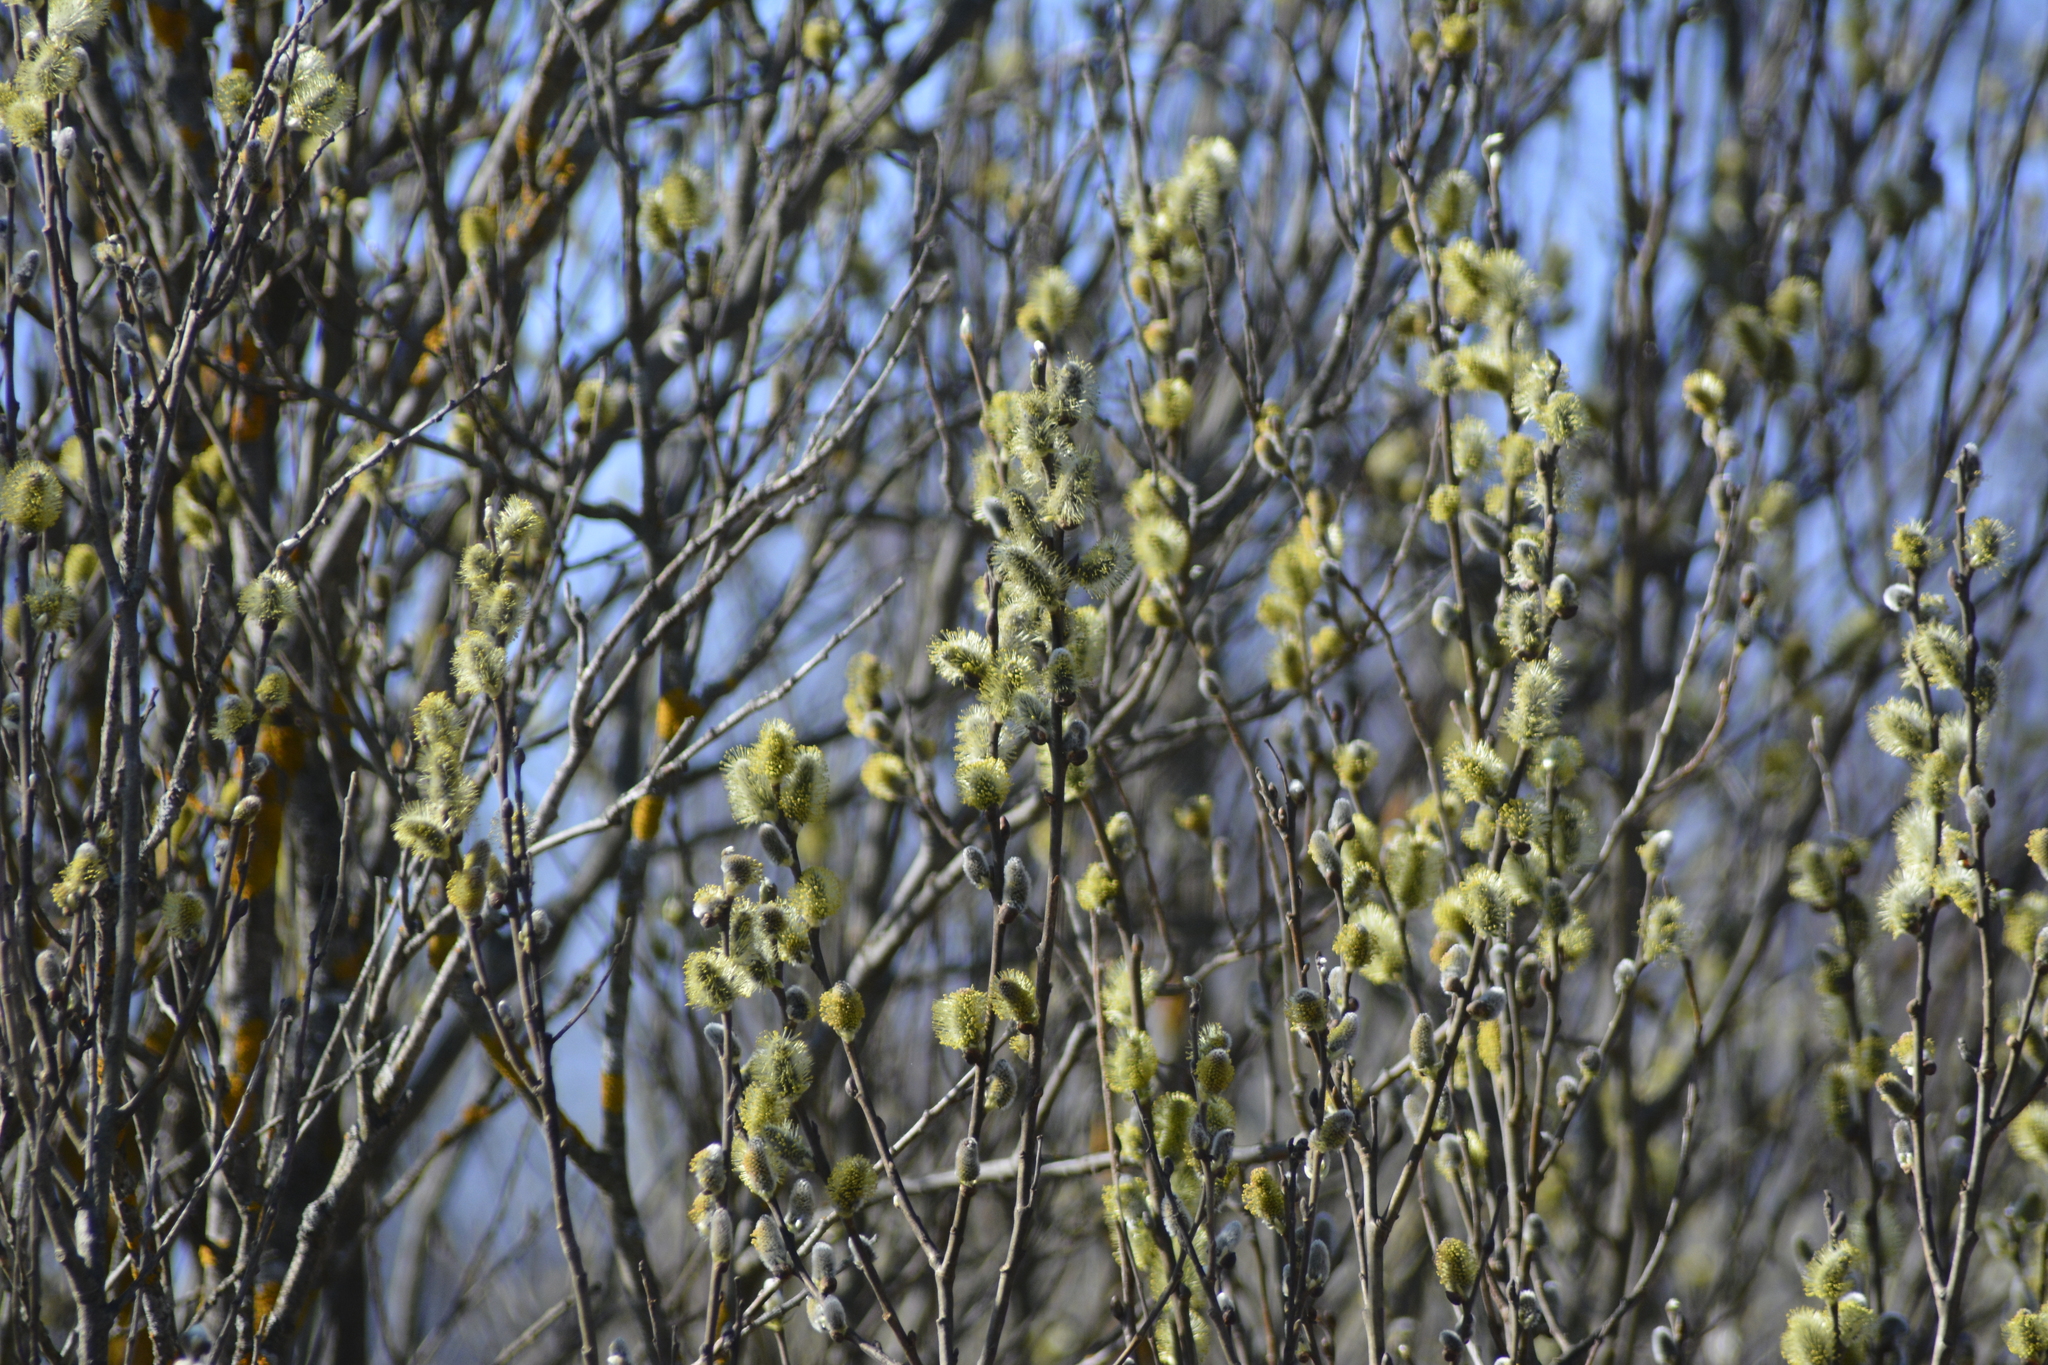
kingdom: Plantae
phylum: Tracheophyta
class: Magnoliopsida
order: Malpighiales
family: Salicaceae
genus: Salix
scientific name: Salix cinerea
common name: Common sallow
